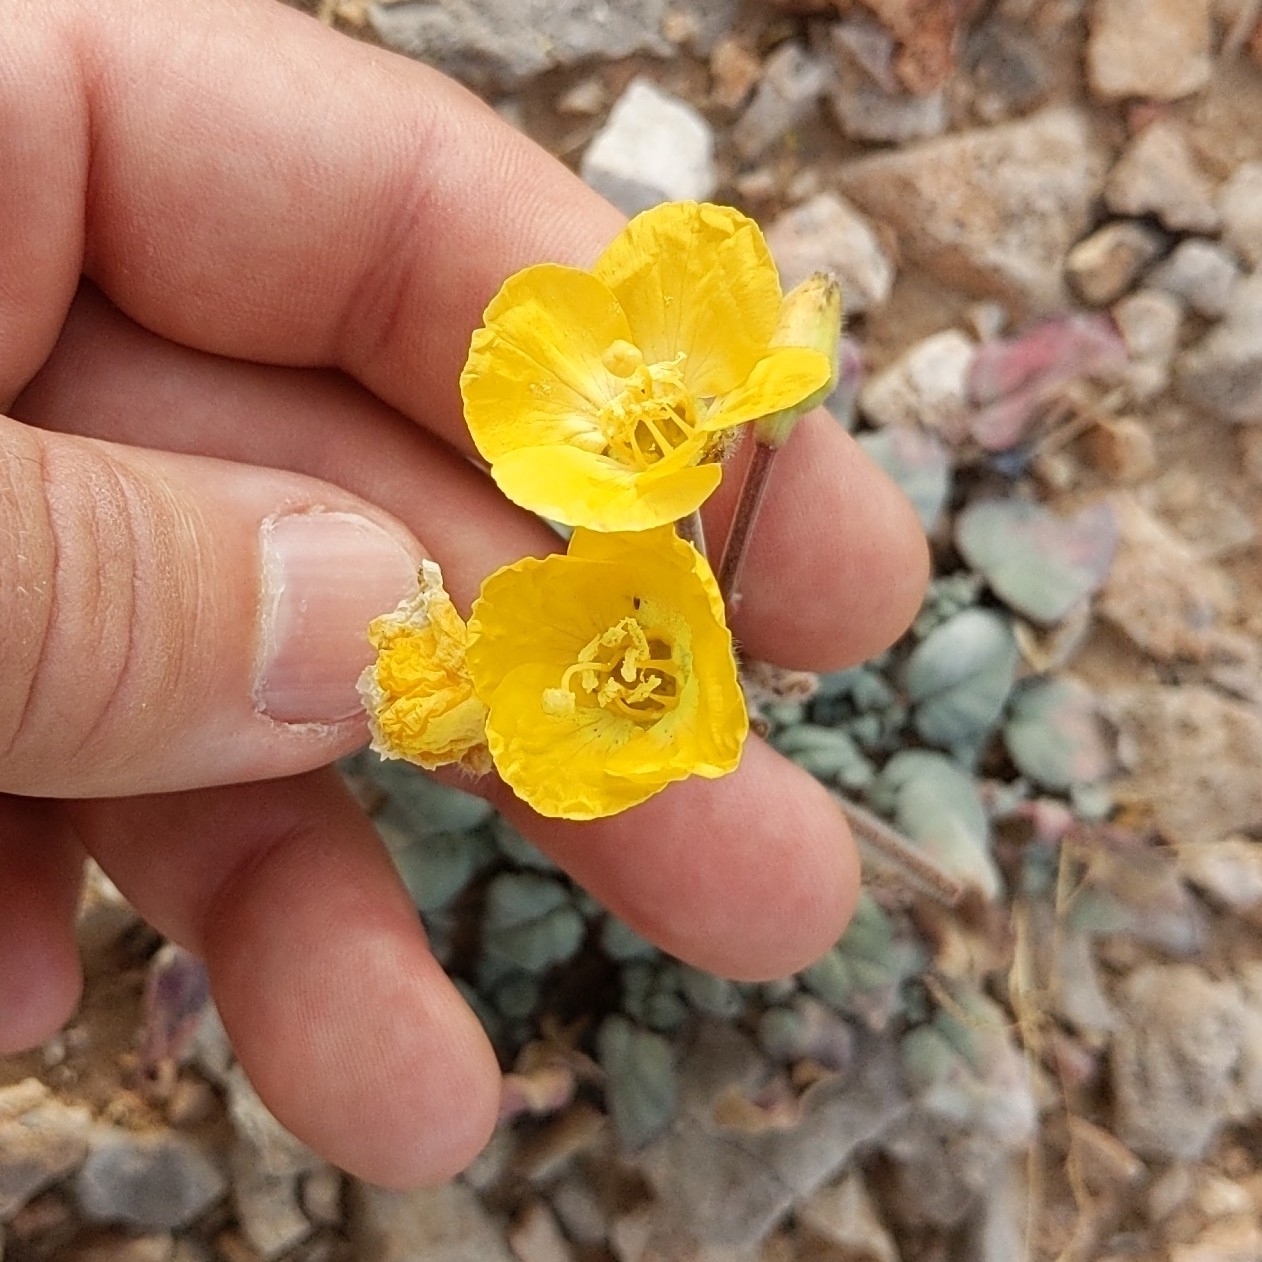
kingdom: Plantae
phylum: Tracheophyta
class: Magnoliopsida
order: Myrtales
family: Onagraceae
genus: Chylismia
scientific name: Chylismia brevipes
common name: Yellow cups
